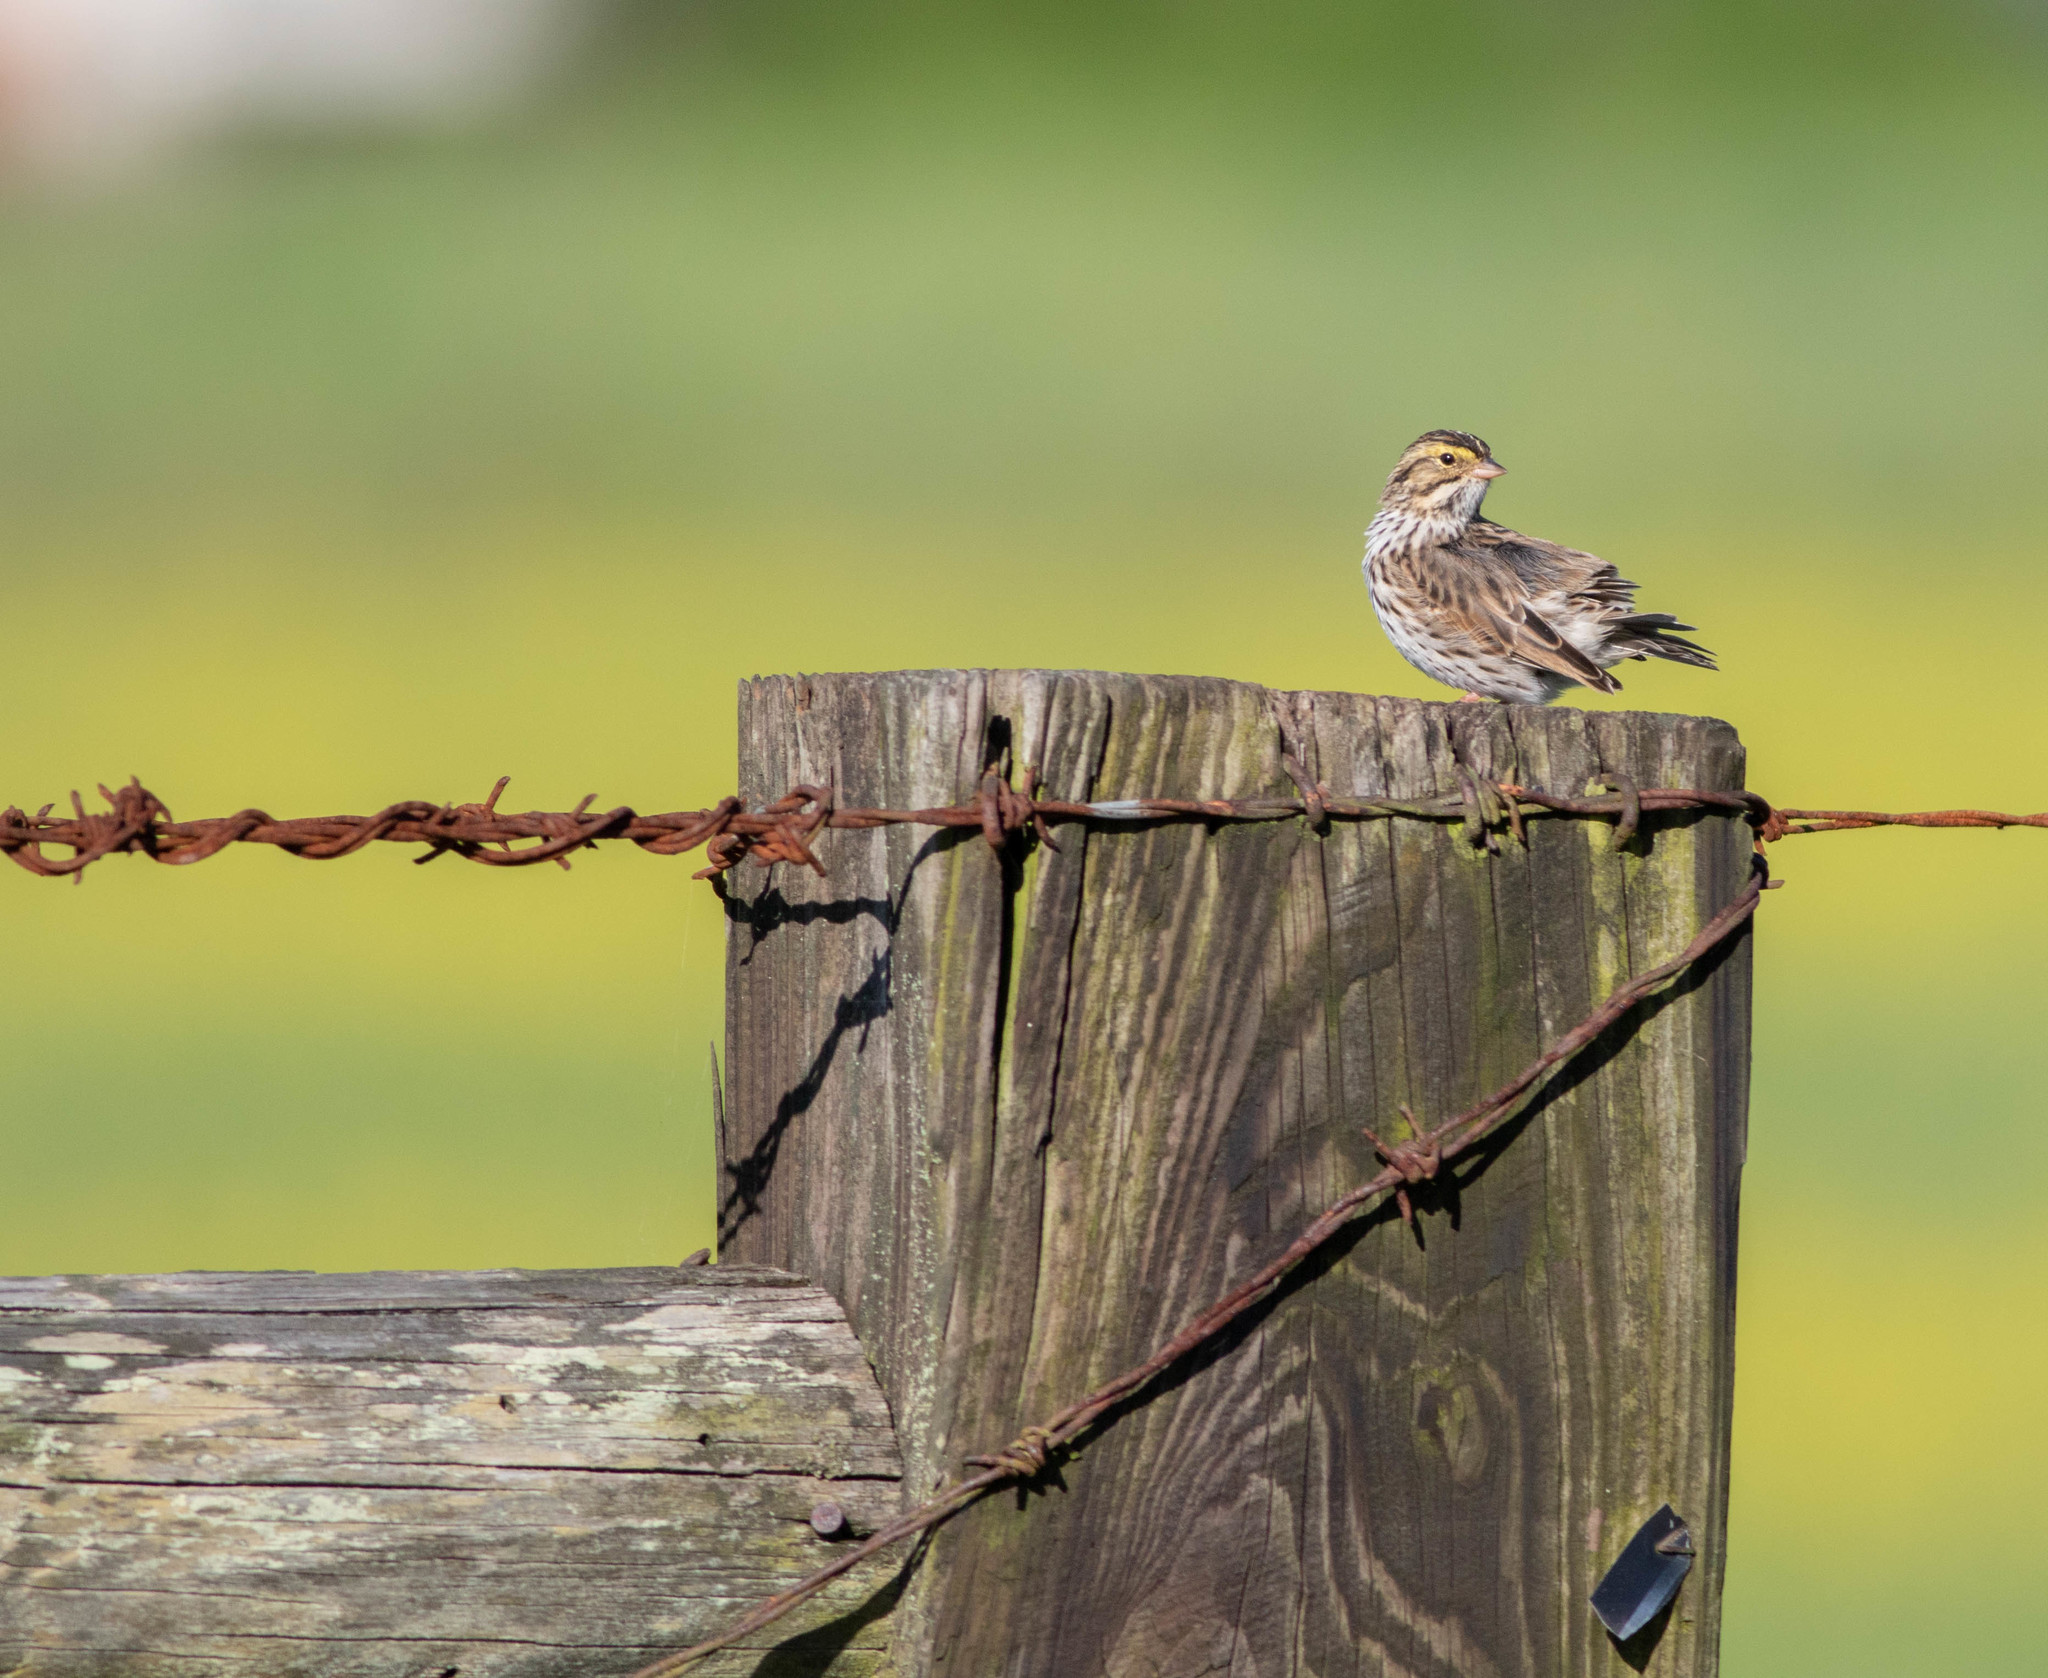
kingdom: Animalia
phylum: Chordata
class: Aves
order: Passeriformes
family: Passerellidae
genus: Passerculus
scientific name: Passerculus sandwichensis
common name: Savannah sparrow
